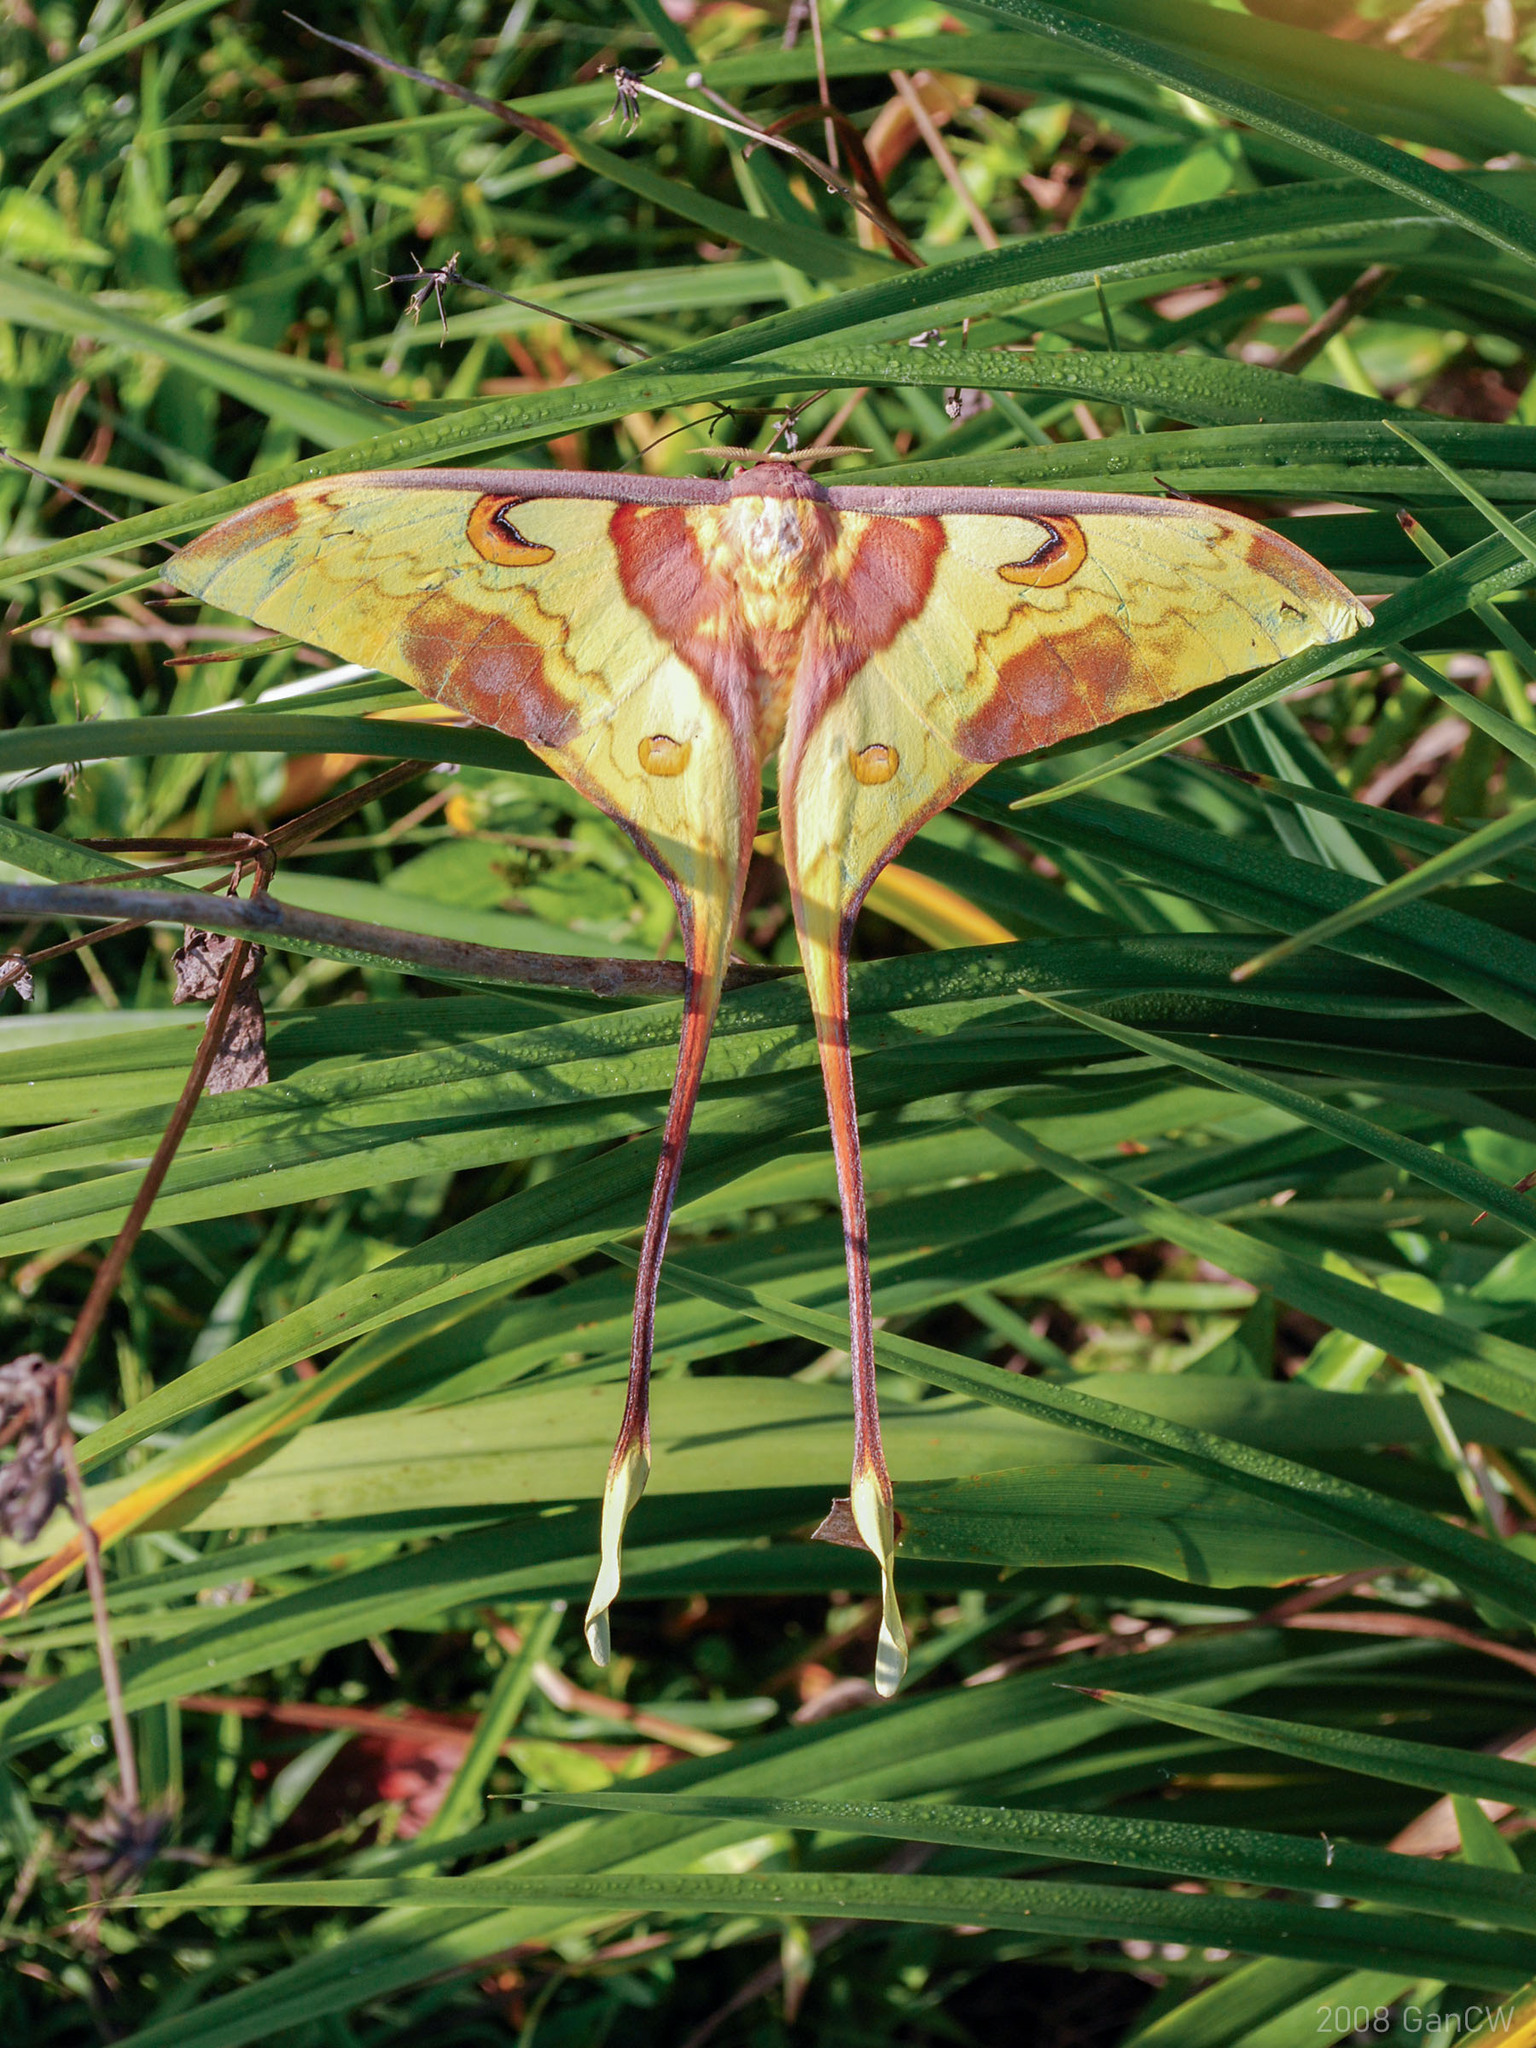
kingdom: Animalia
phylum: Arthropoda
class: Insecta
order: Lepidoptera
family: Saturniidae
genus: Actias
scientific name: Actias maenas
